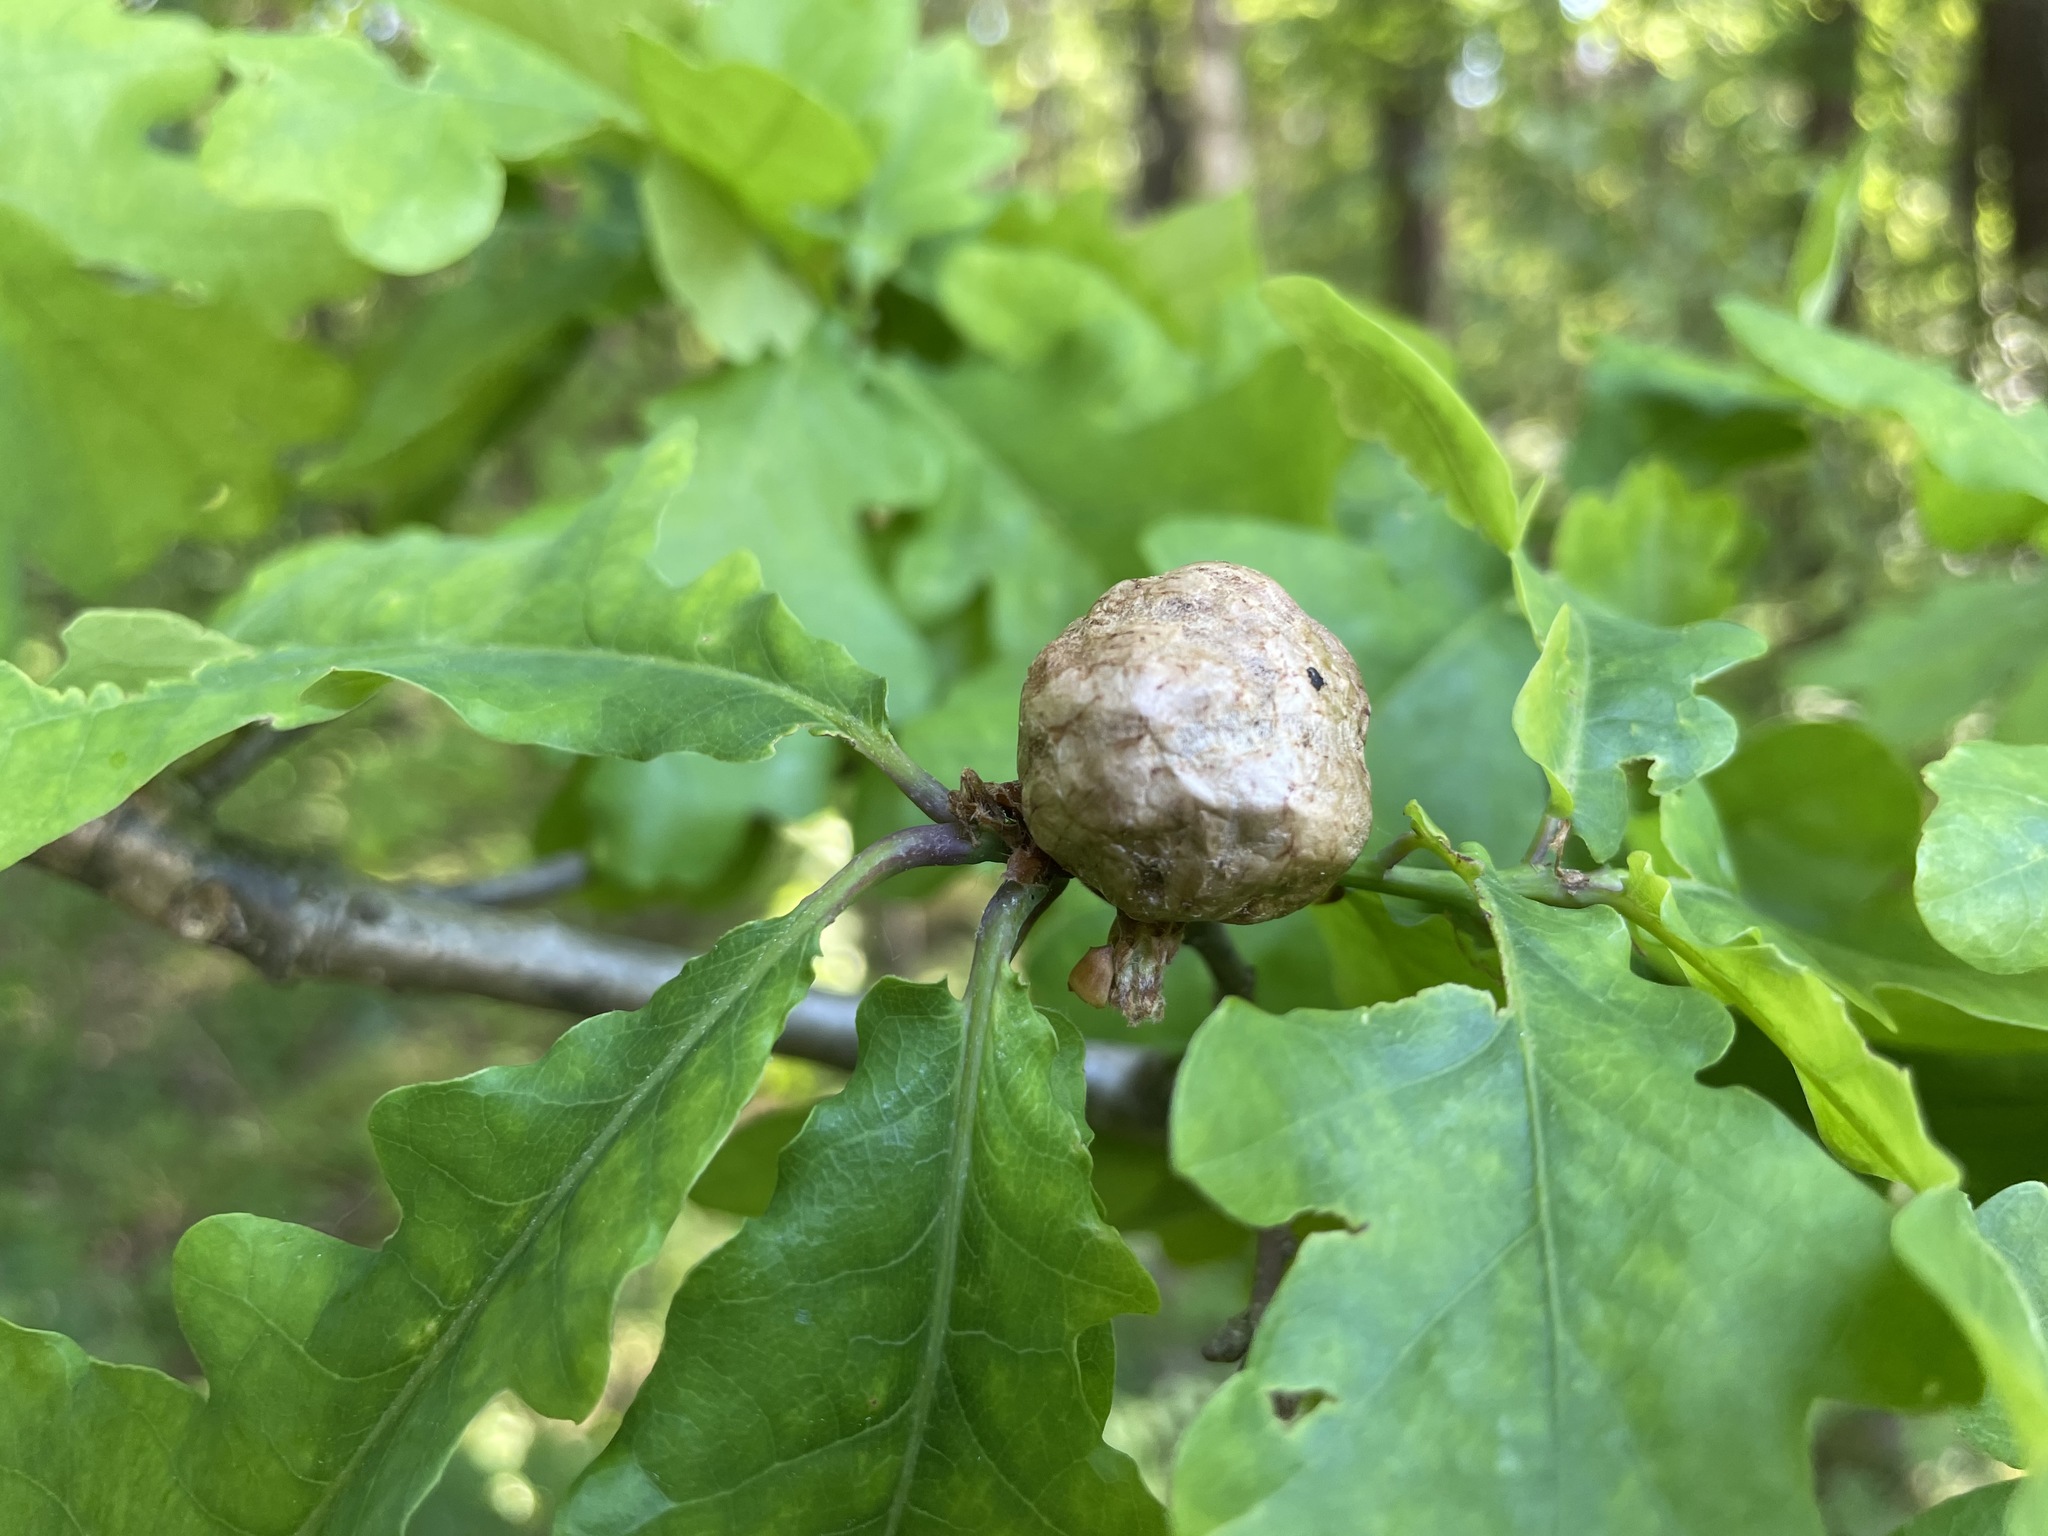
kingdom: Animalia
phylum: Arthropoda
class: Insecta
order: Hymenoptera
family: Cynipidae
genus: Biorhiza
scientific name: Biorhiza pallida
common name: Oak apple
